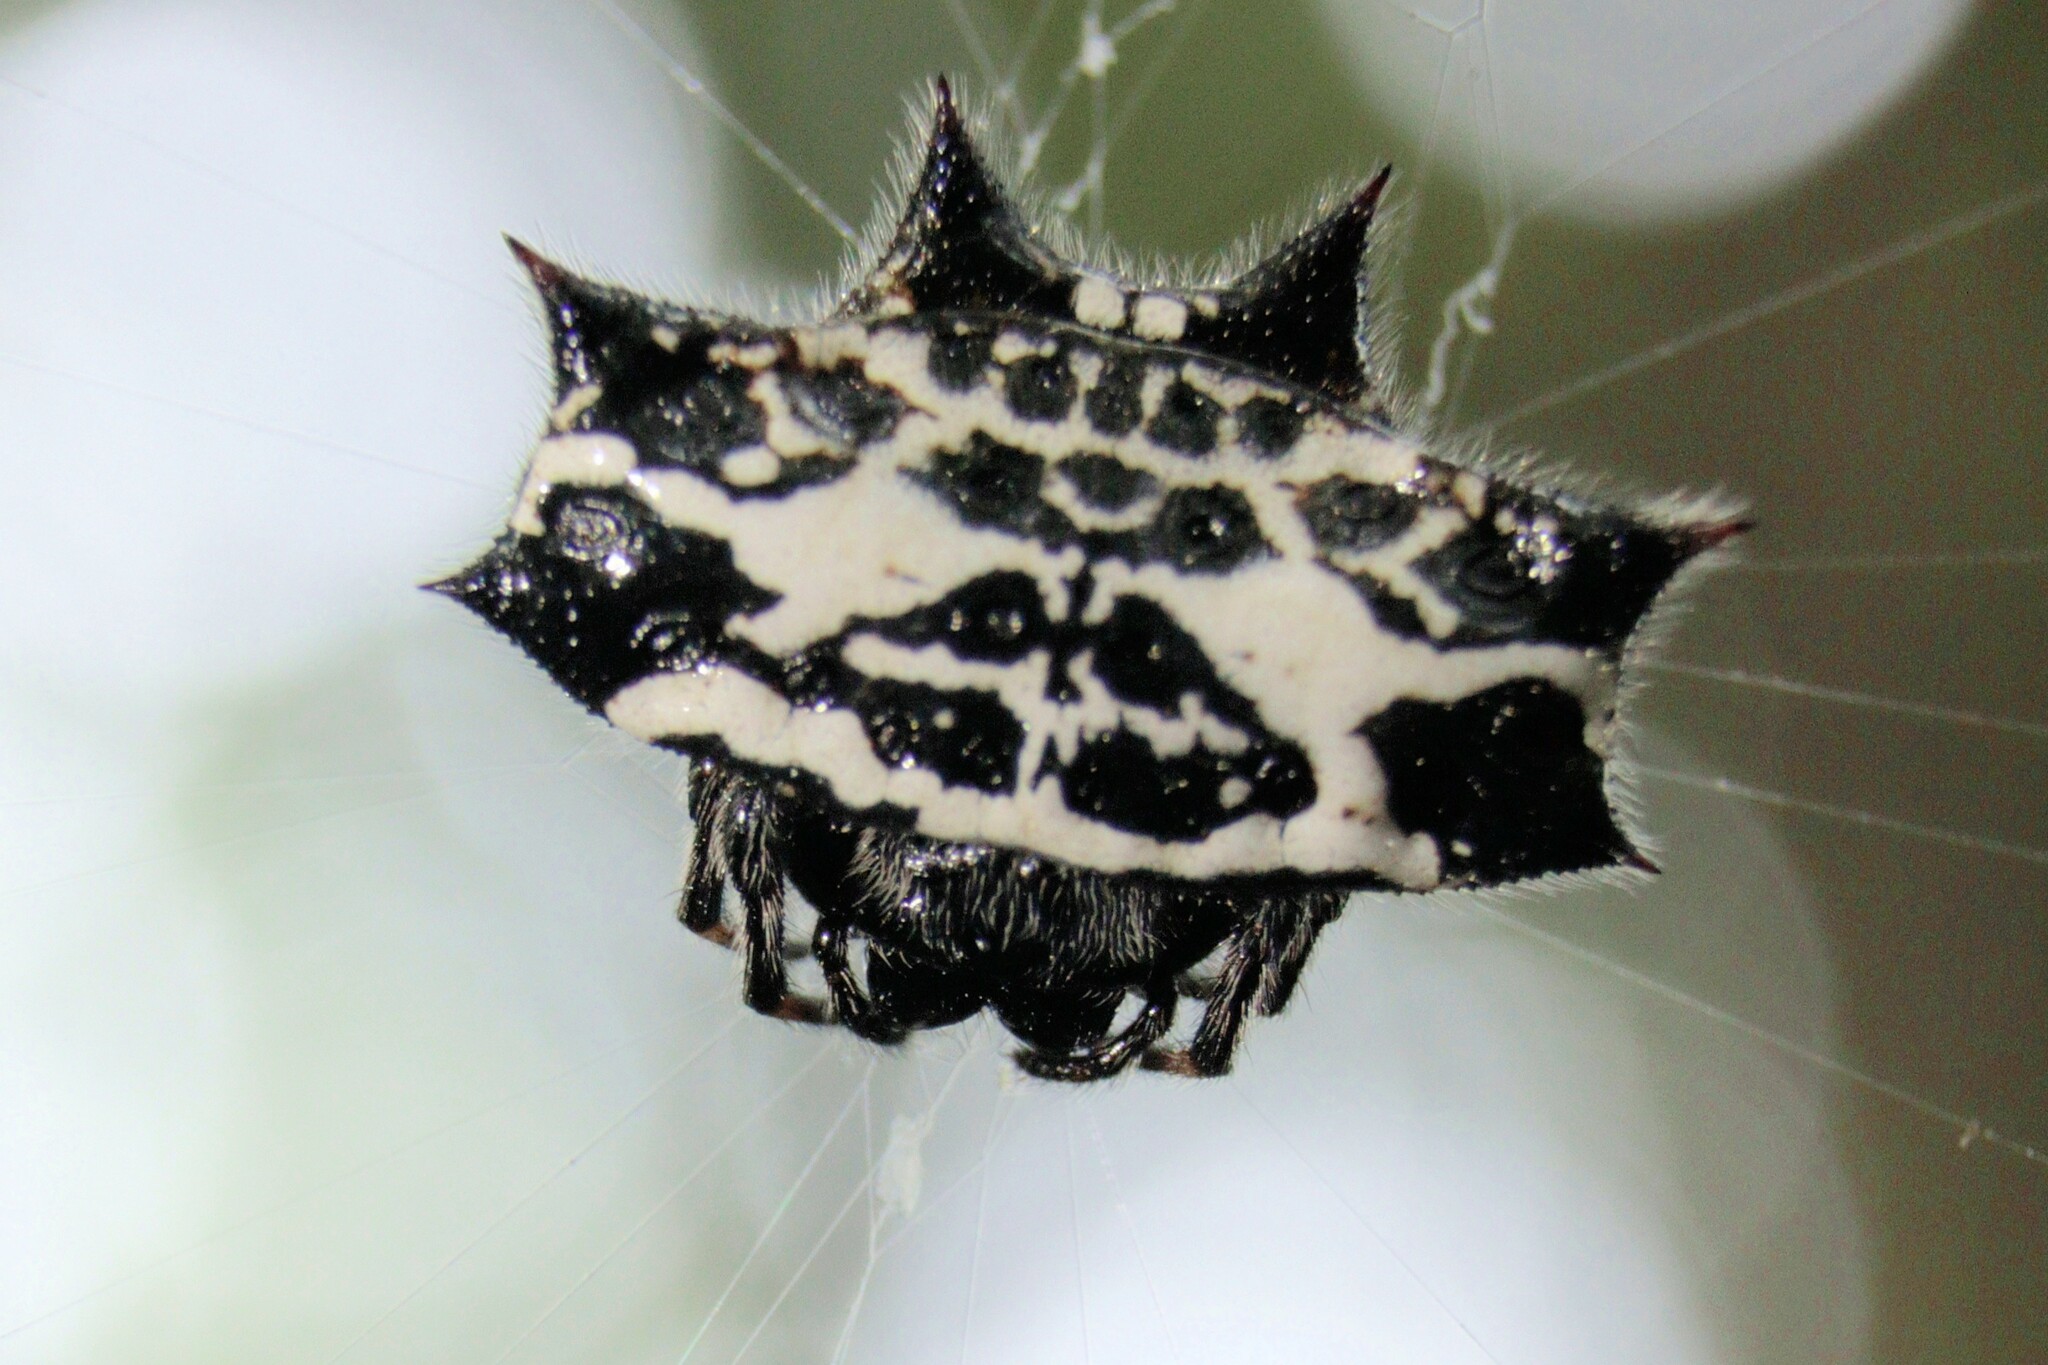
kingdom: Animalia
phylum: Arthropoda
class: Arachnida
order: Araneae
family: Araneidae
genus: Gasteracantha
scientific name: Gasteracantha cancriformis
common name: Orb weavers
